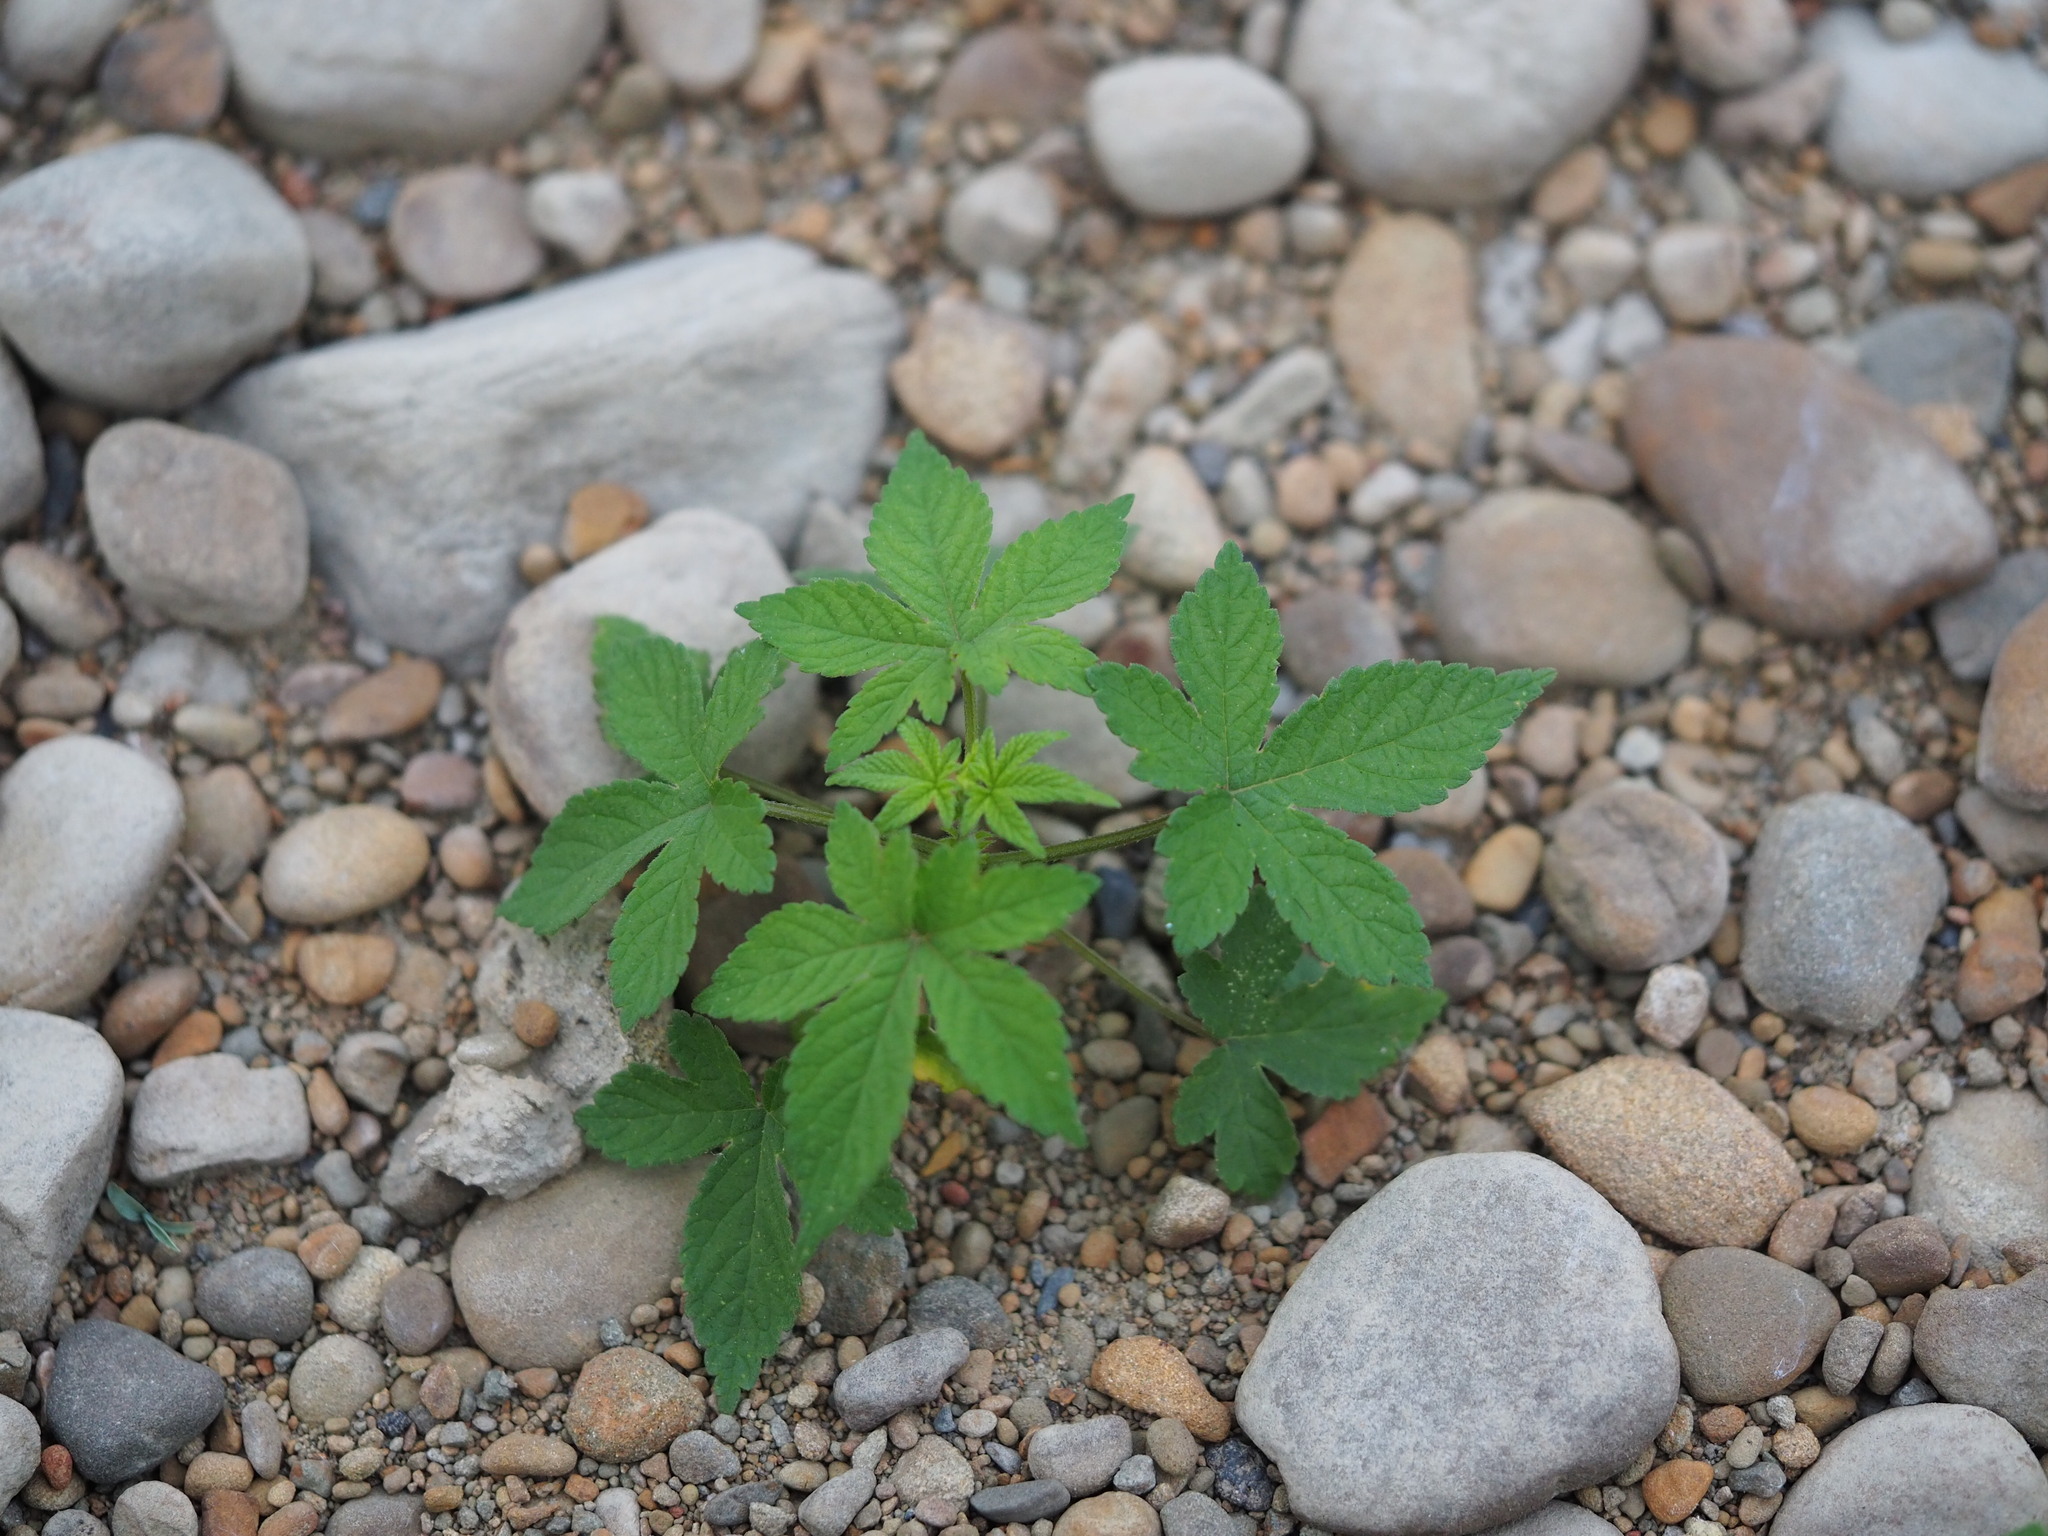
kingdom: Plantae
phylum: Tracheophyta
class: Magnoliopsida
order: Rosales
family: Cannabaceae
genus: Humulus
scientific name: Humulus scandens
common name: Japanese hop
